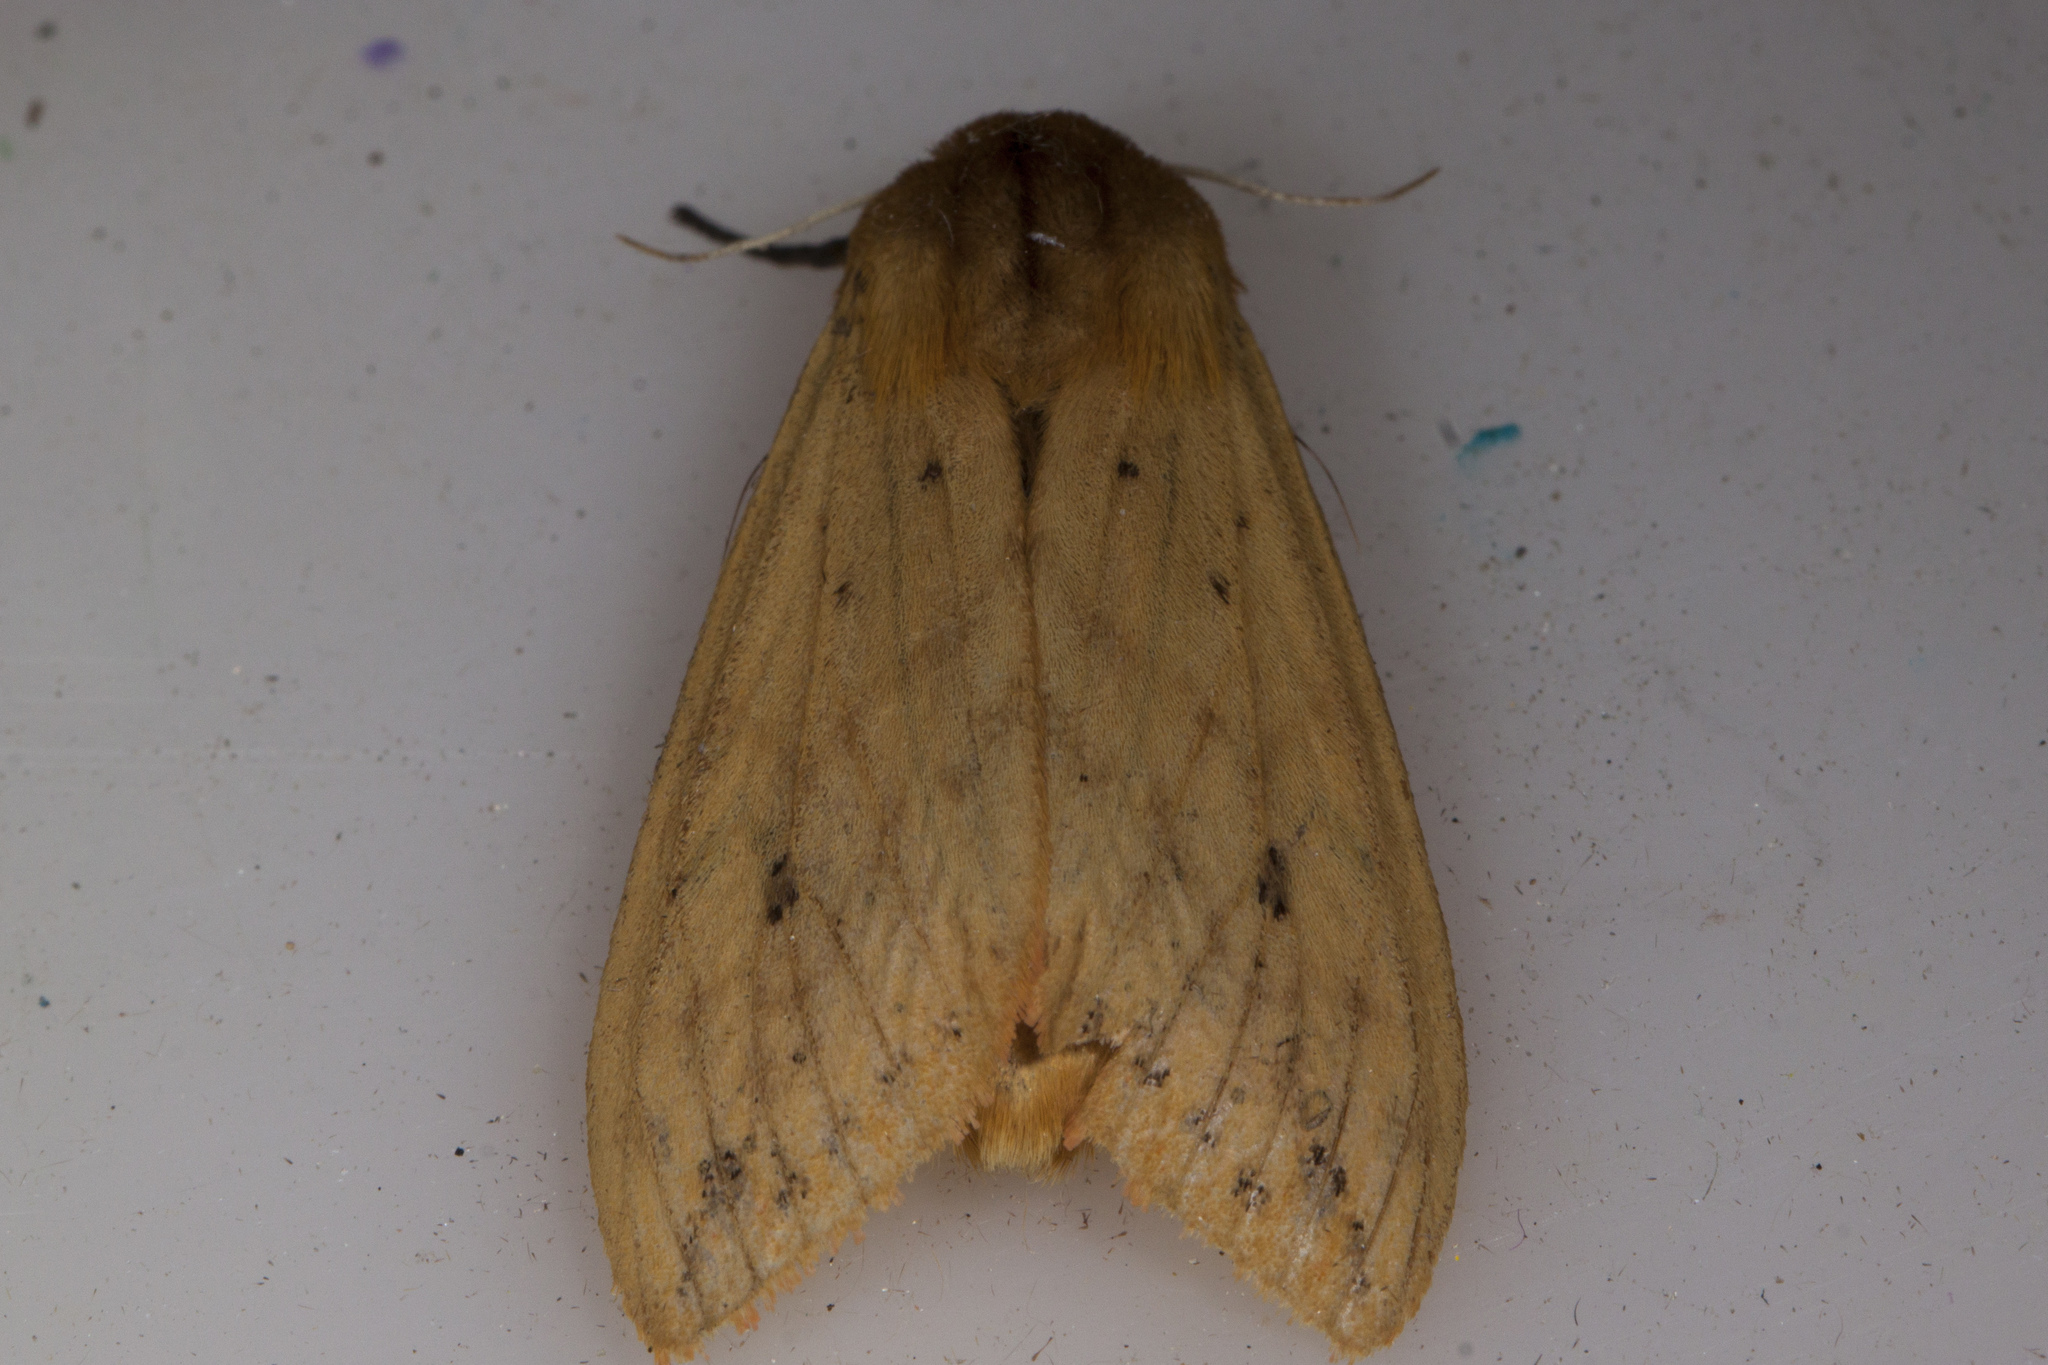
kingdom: Animalia
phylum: Arthropoda
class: Insecta
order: Lepidoptera
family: Erebidae
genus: Pyrrharctia
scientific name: Pyrrharctia isabella
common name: Isabella tiger moth
